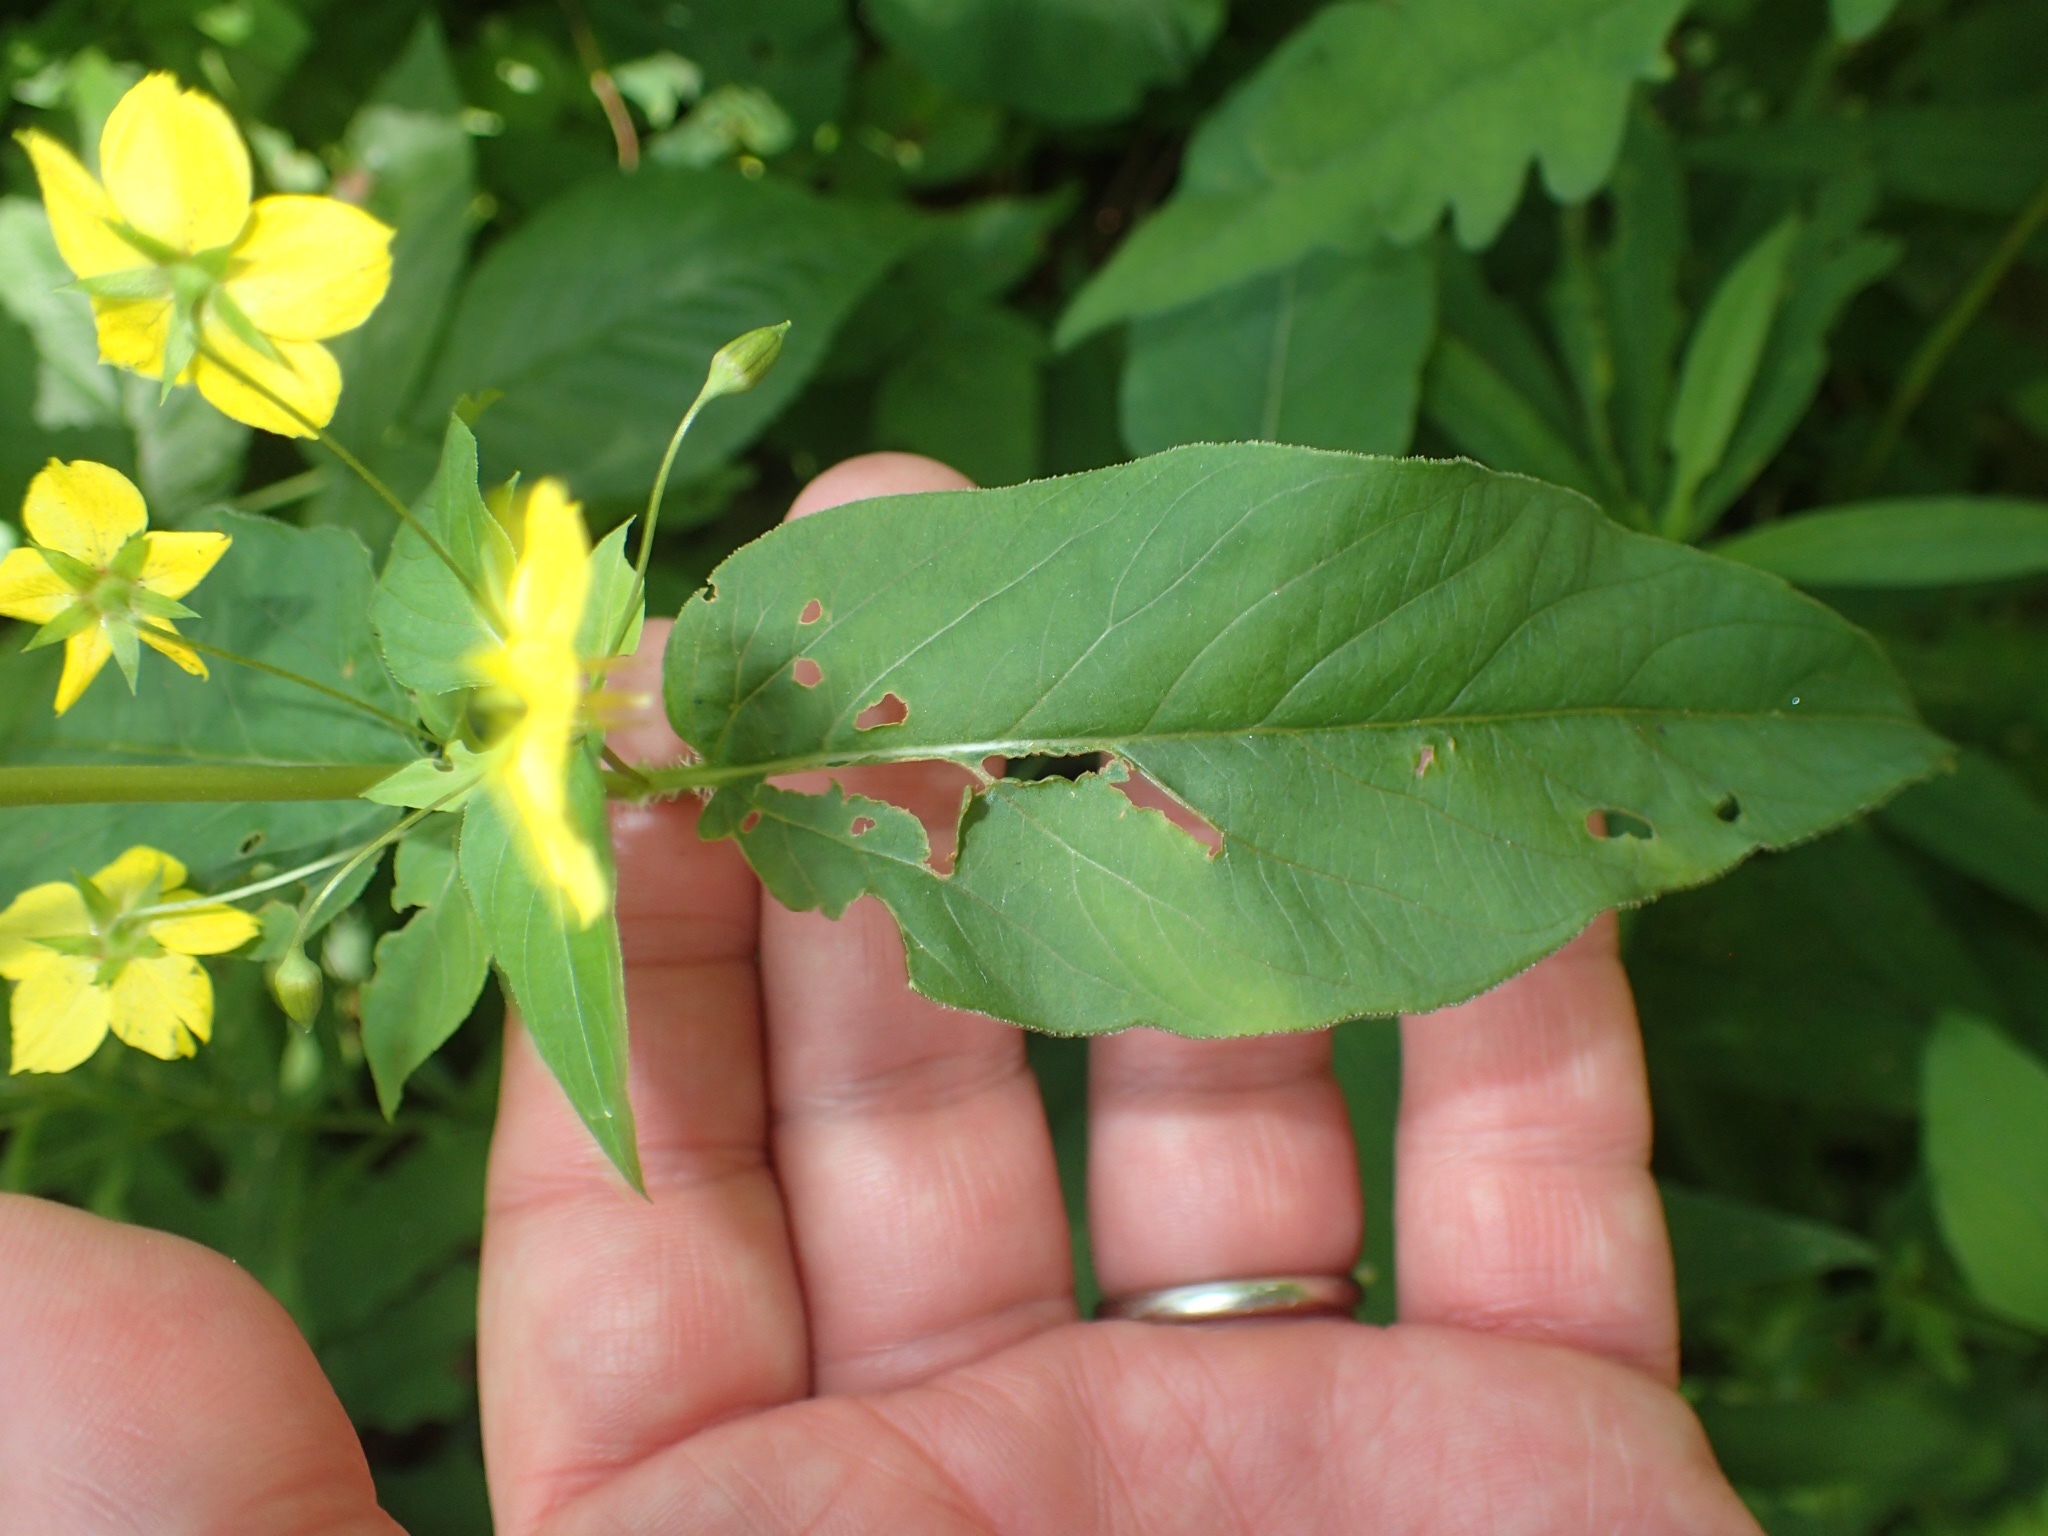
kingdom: Plantae
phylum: Tracheophyta
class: Magnoliopsida
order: Ericales
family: Primulaceae
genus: Lysimachia
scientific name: Lysimachia ciliata
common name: Fringed loosestrife
